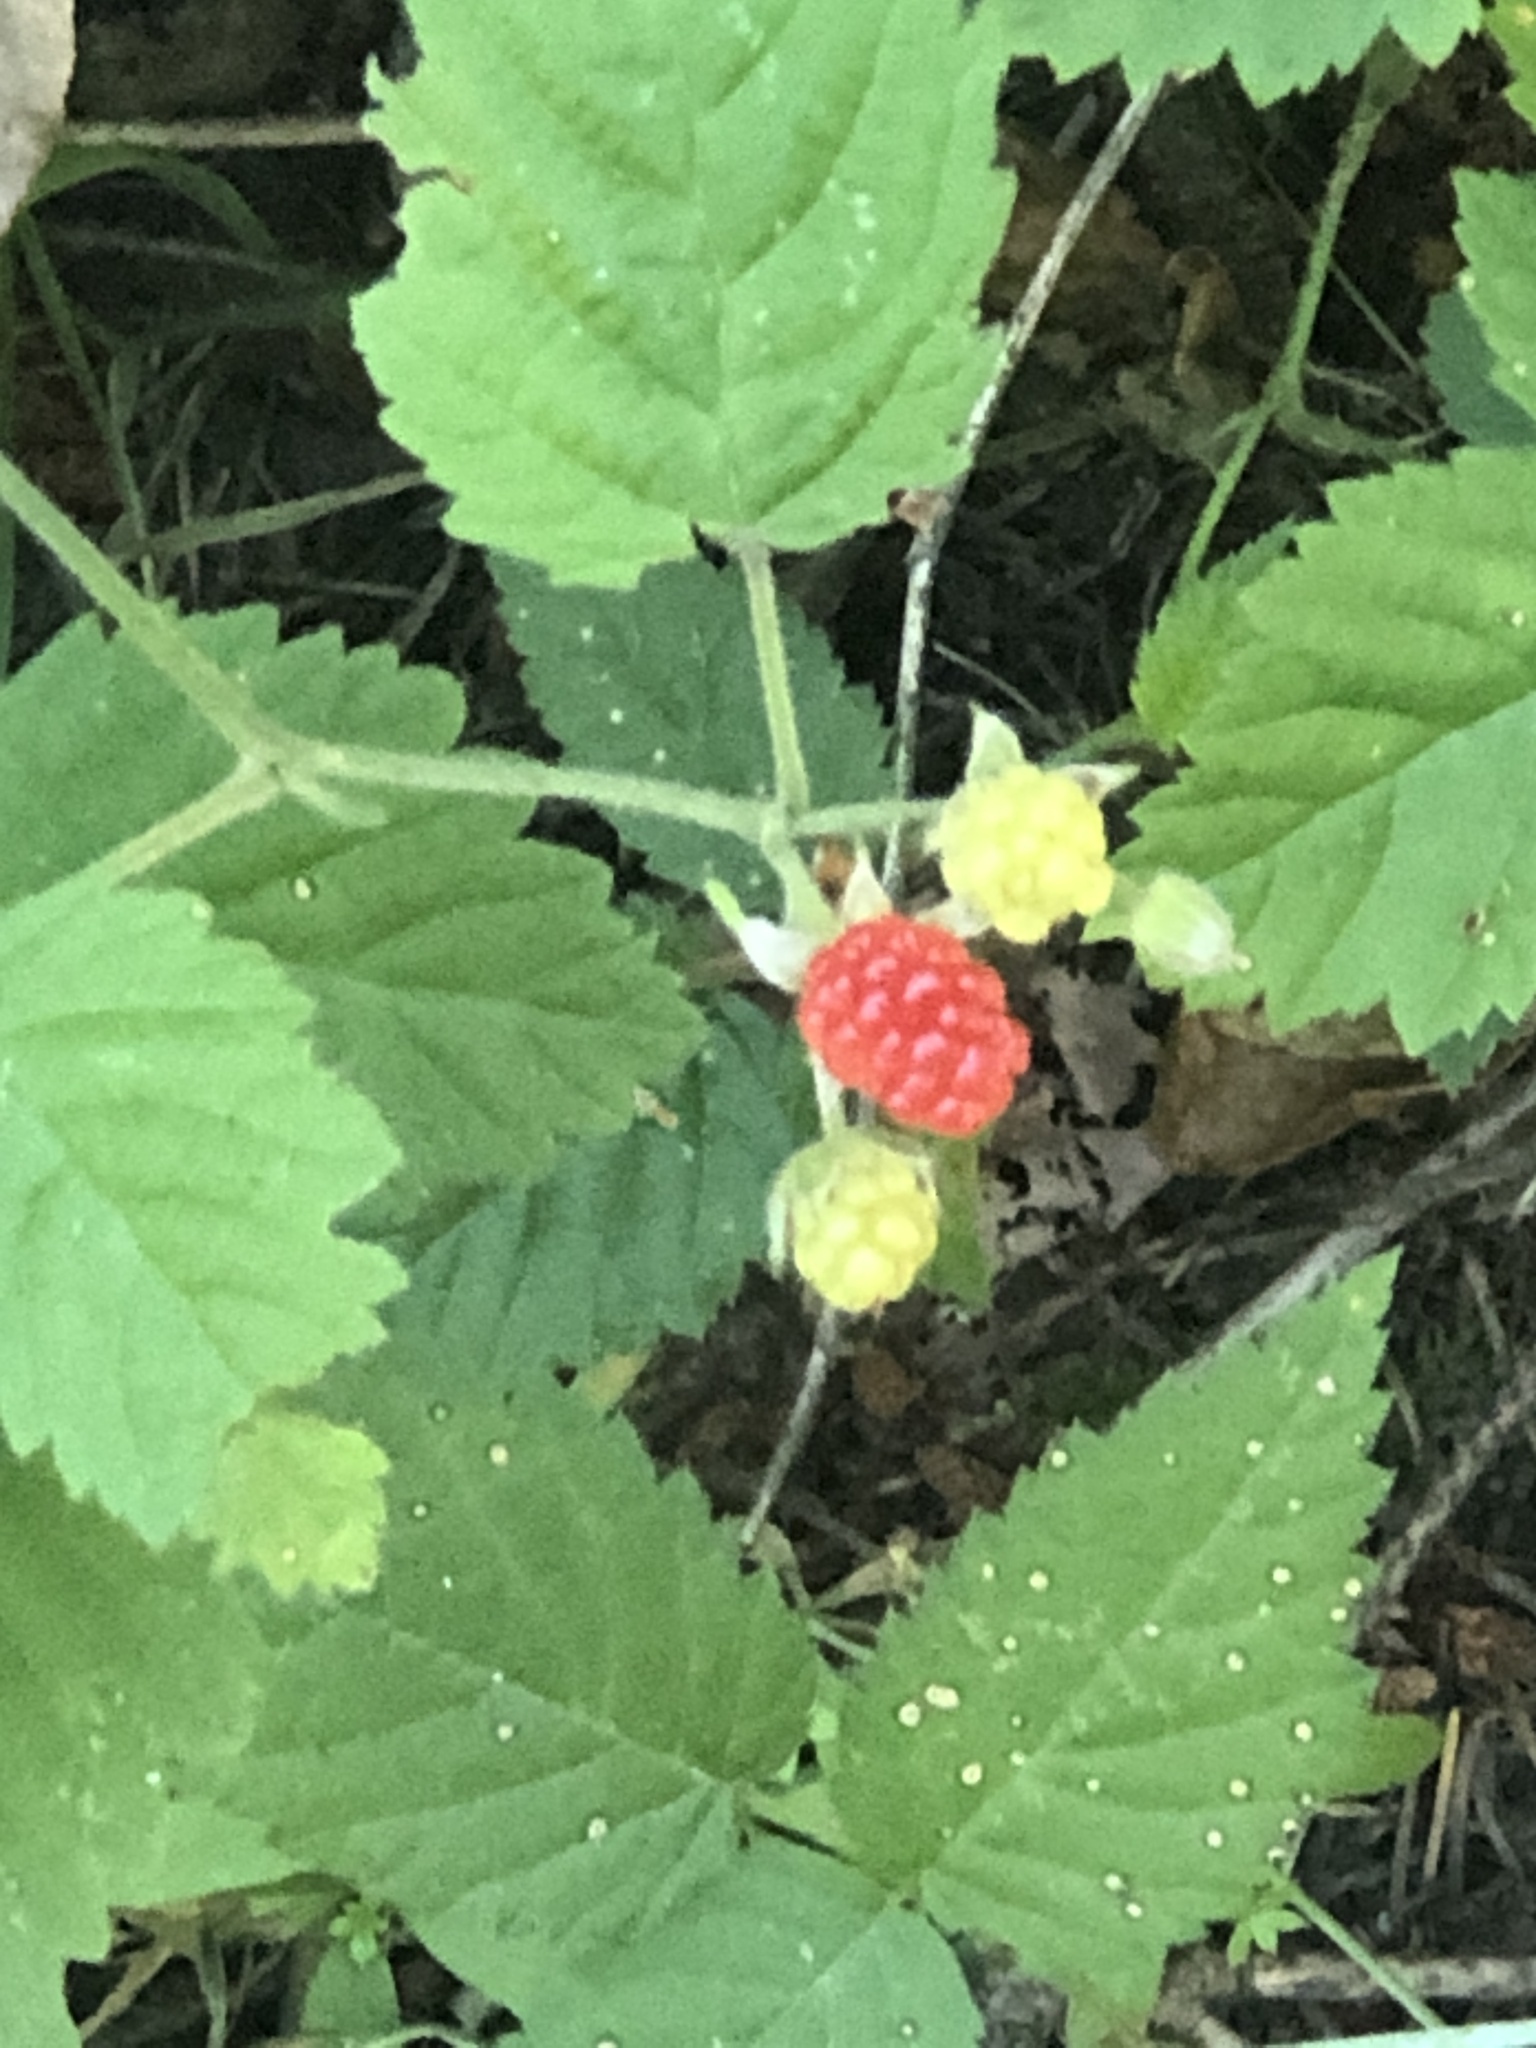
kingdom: Plantae
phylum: Tracheophyta
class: Magnoliopsida
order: Rosales
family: Rosaceae
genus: Rubus
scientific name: Rubus ursinus
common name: Pacific blackberry
